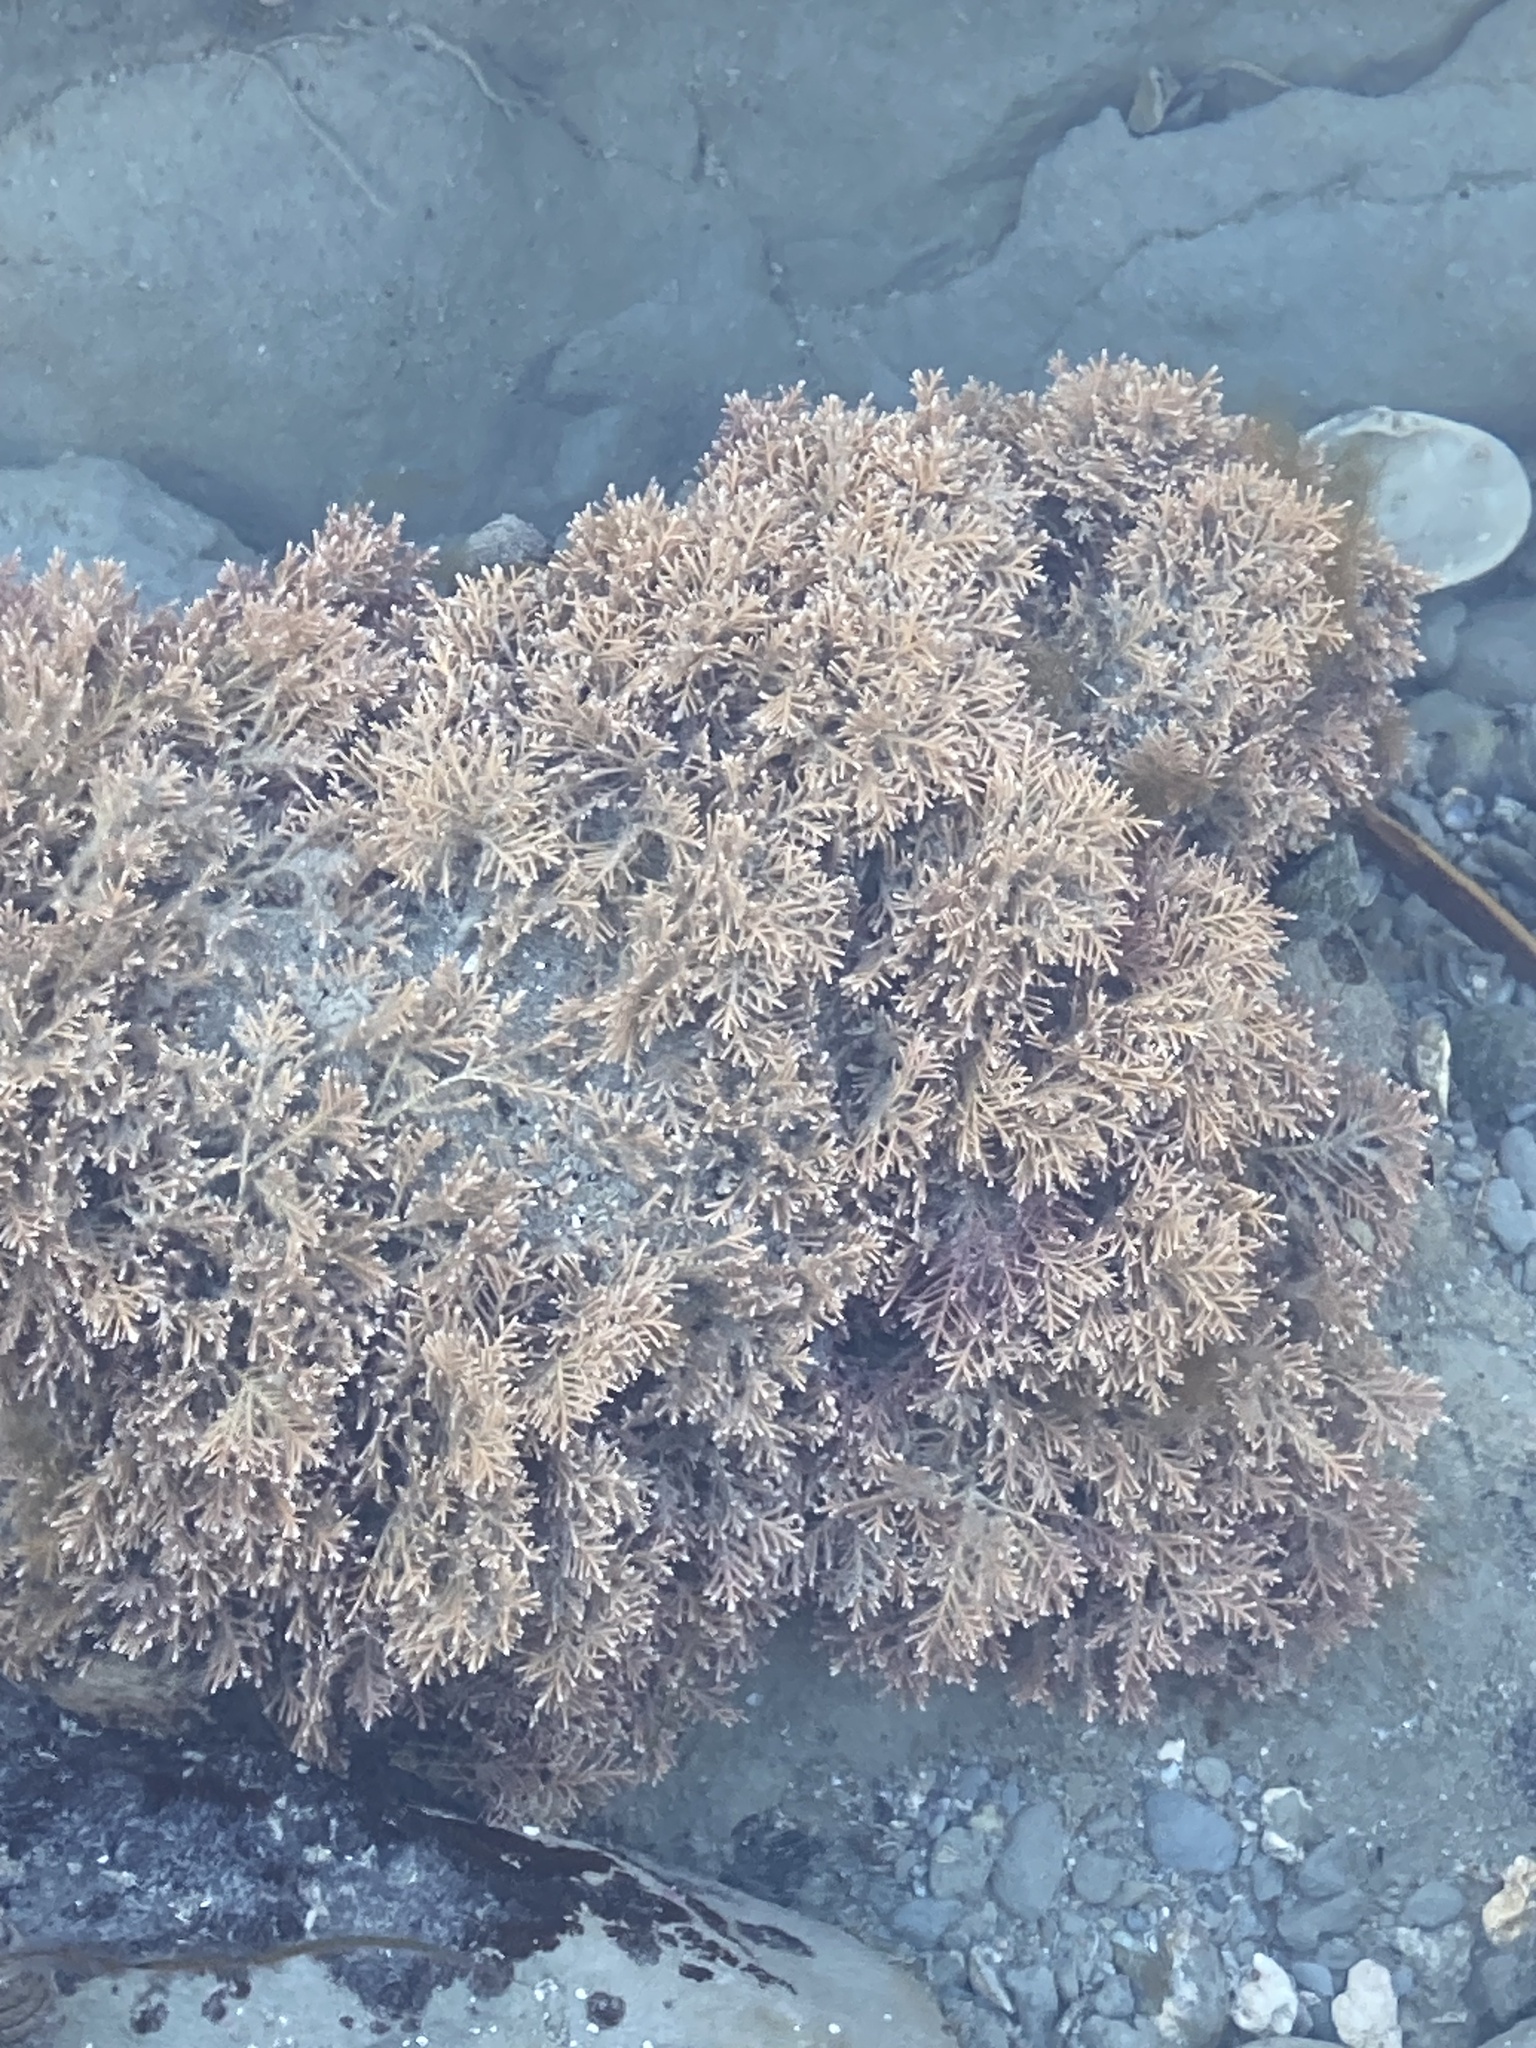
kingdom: Plantae
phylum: Rhodophyta
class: Florideophyceae
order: Corallinales
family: Corallinaceae
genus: Corallina
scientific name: Corallina officinalis
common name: Coral weed
